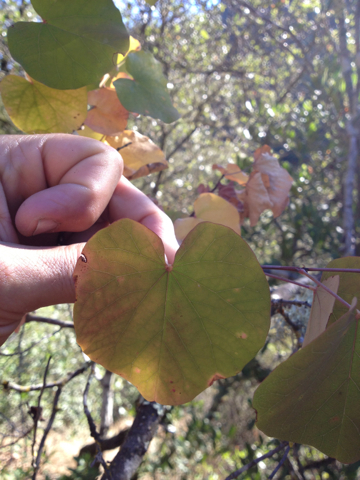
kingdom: Plantae
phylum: Tracheophyta
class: Magnoliopsida
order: Fabales
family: Fabaceae
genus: Cercis
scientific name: Cercis occidentalis
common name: California redbud
